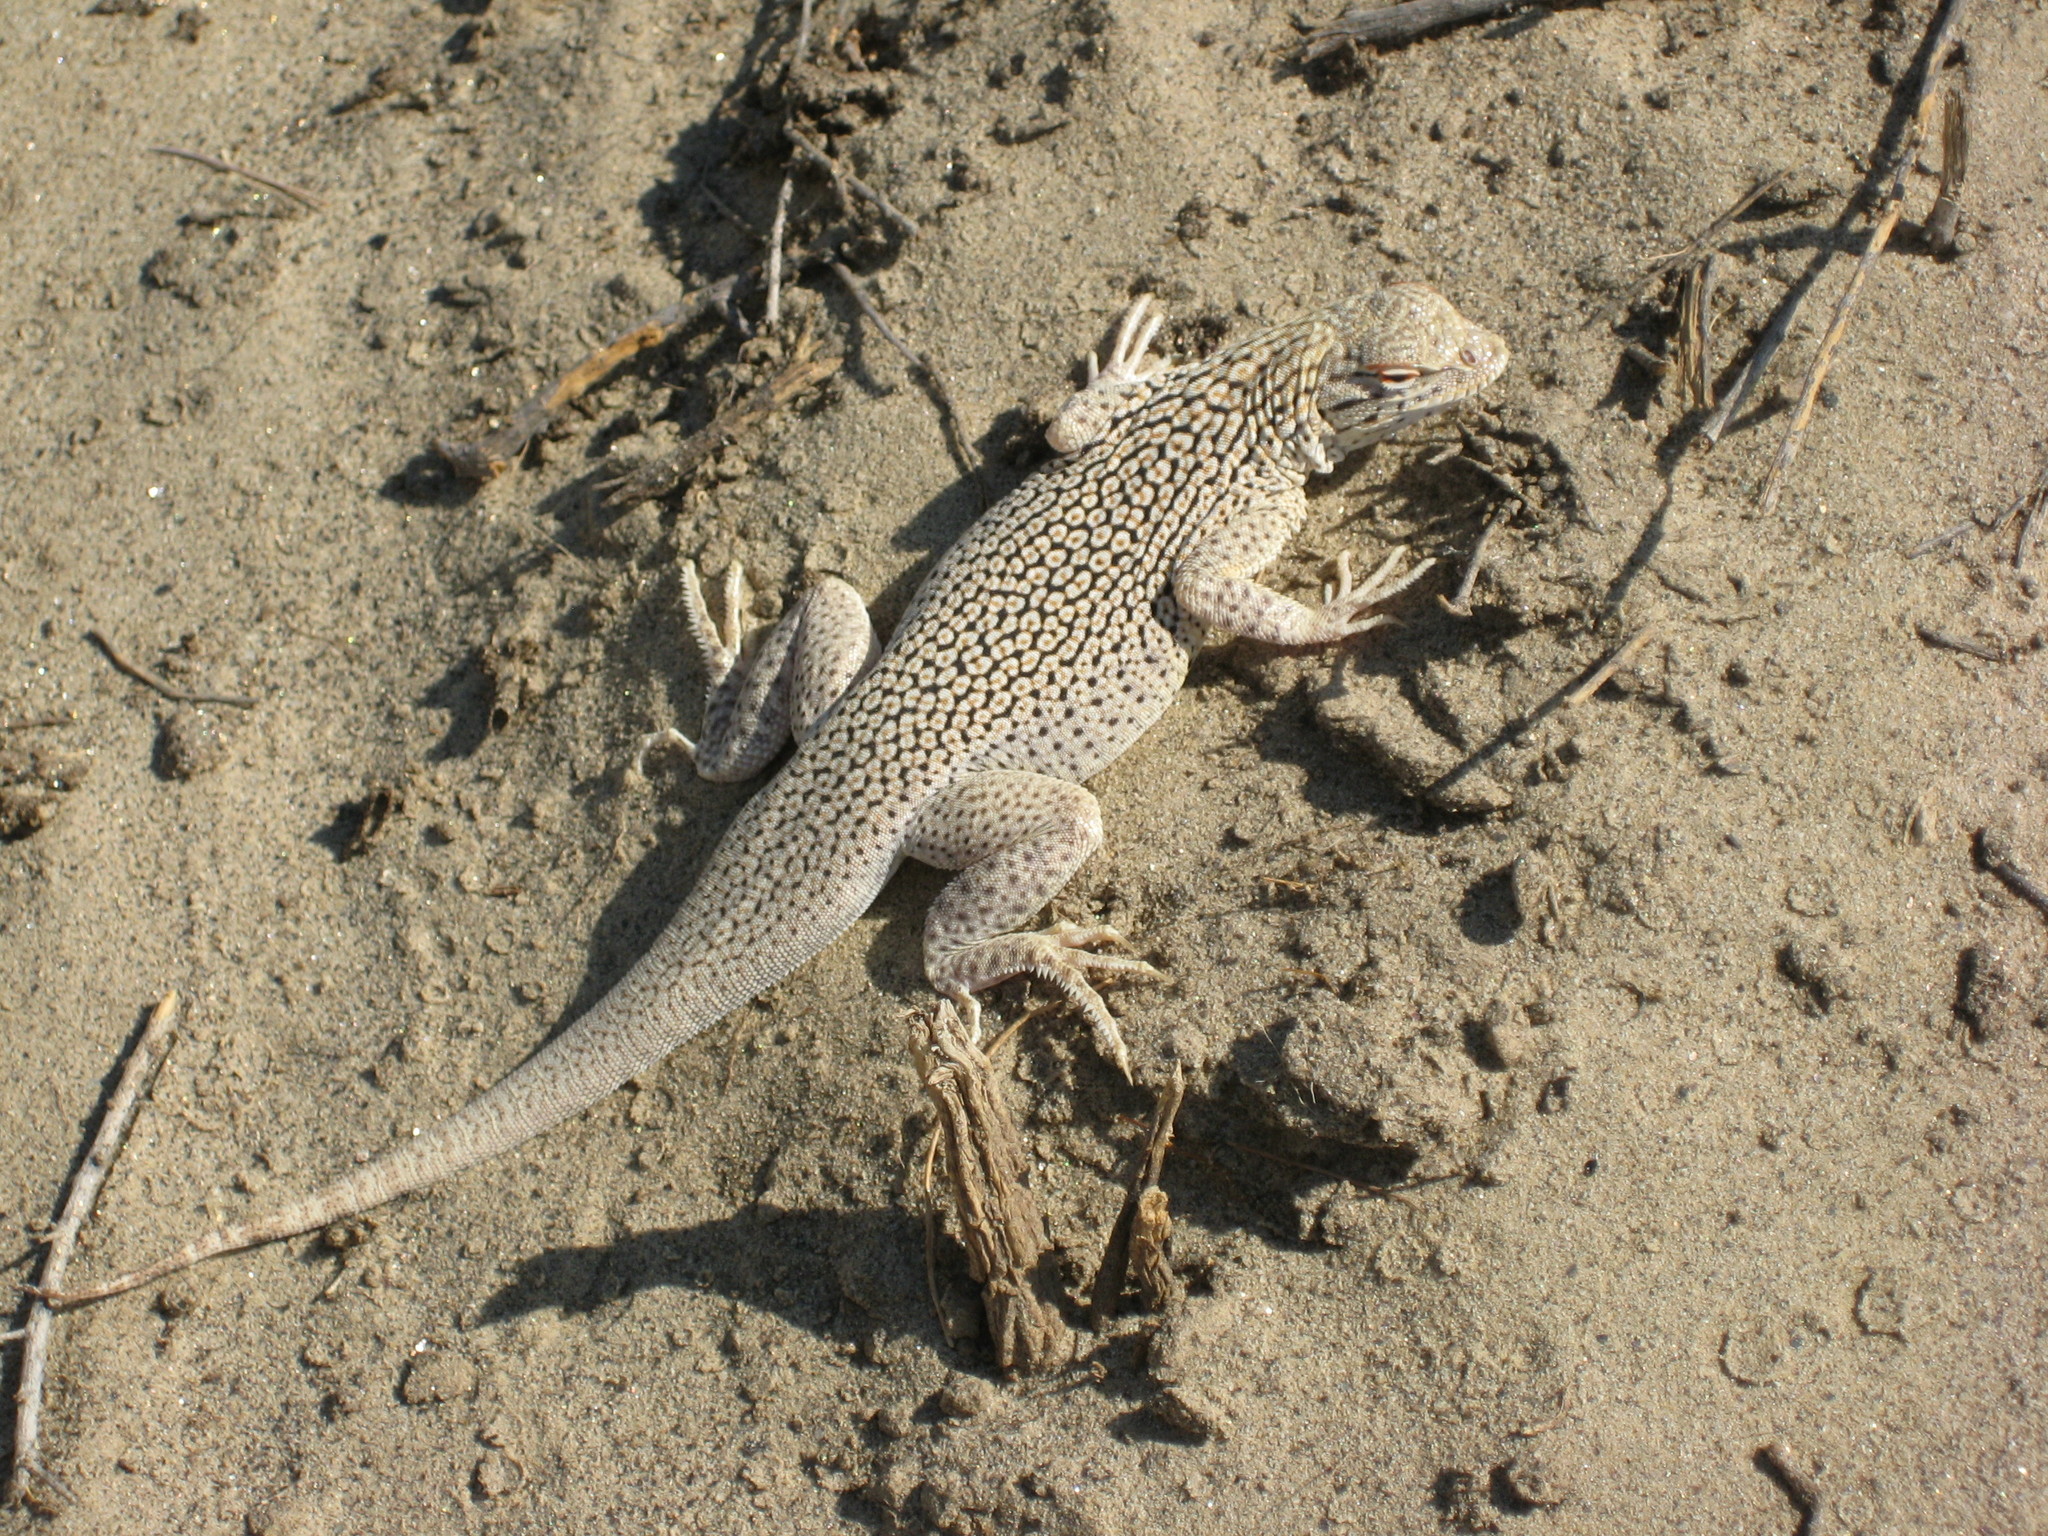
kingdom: Animalia
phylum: Chordata
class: Squamata
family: Phrynosomatidae
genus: Uma
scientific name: Uma notata
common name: Colorado desert fringe-toed lizard
